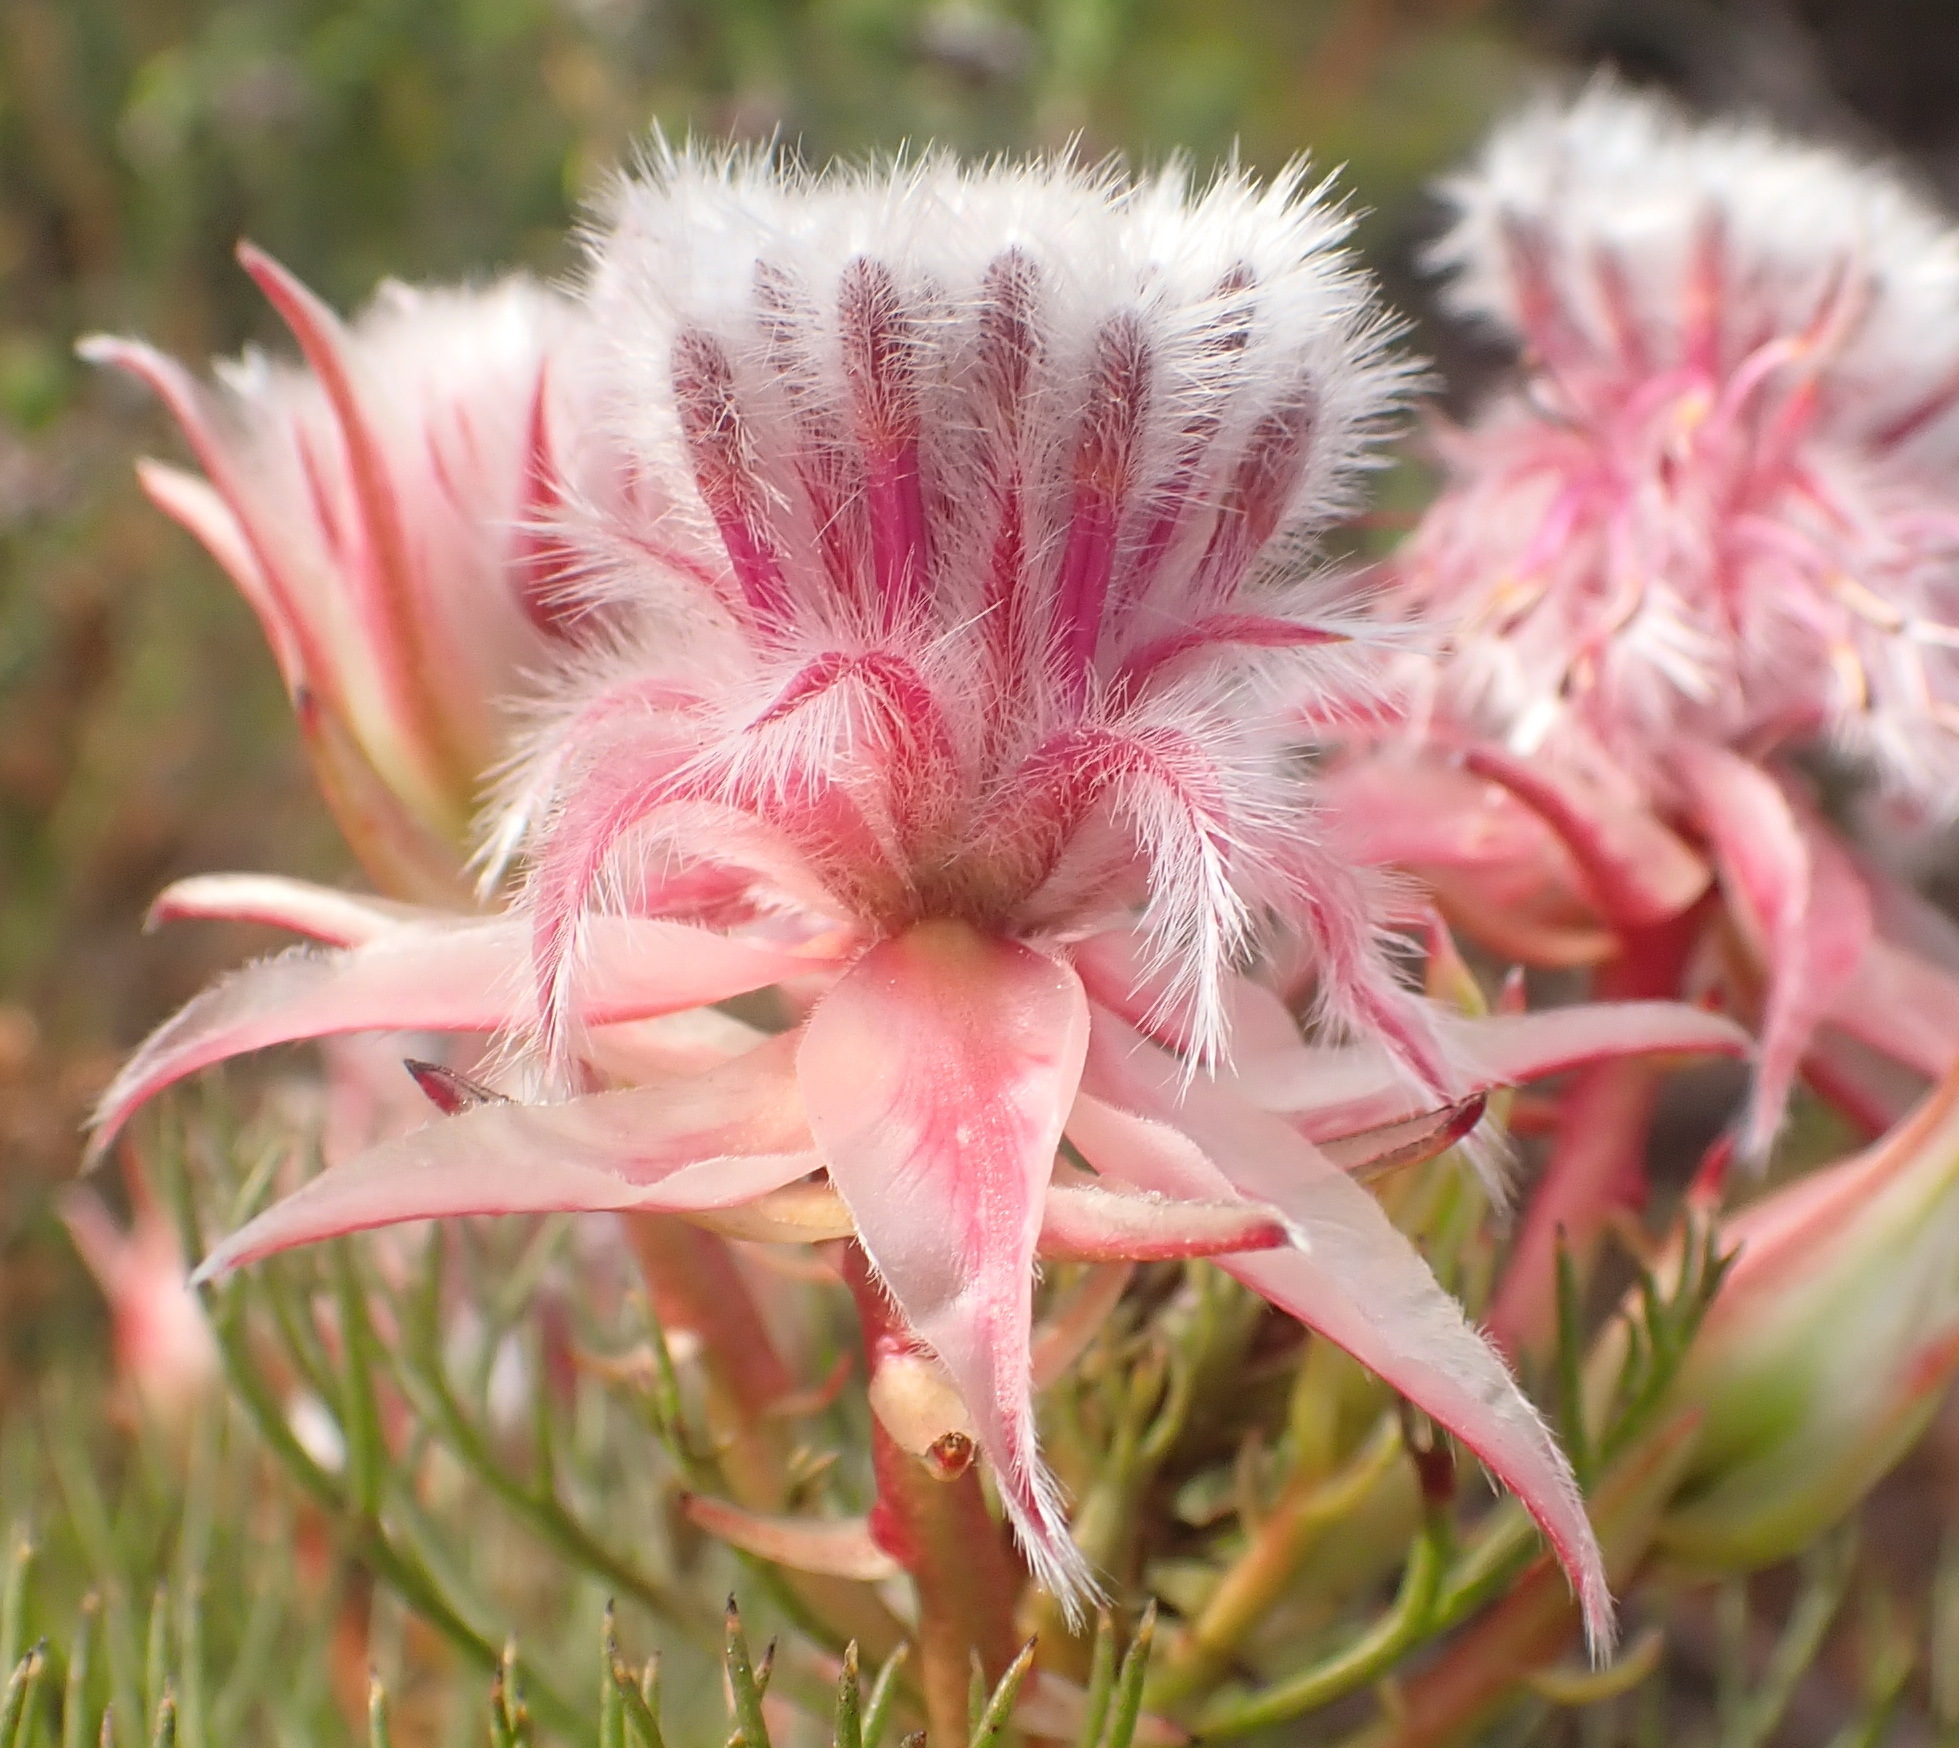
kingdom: Plantae
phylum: Tracheophyta
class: Magnoliopsida
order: Proteales
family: Proteaceae
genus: Serruria
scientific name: Serruria rosea
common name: Rose spiderhead
